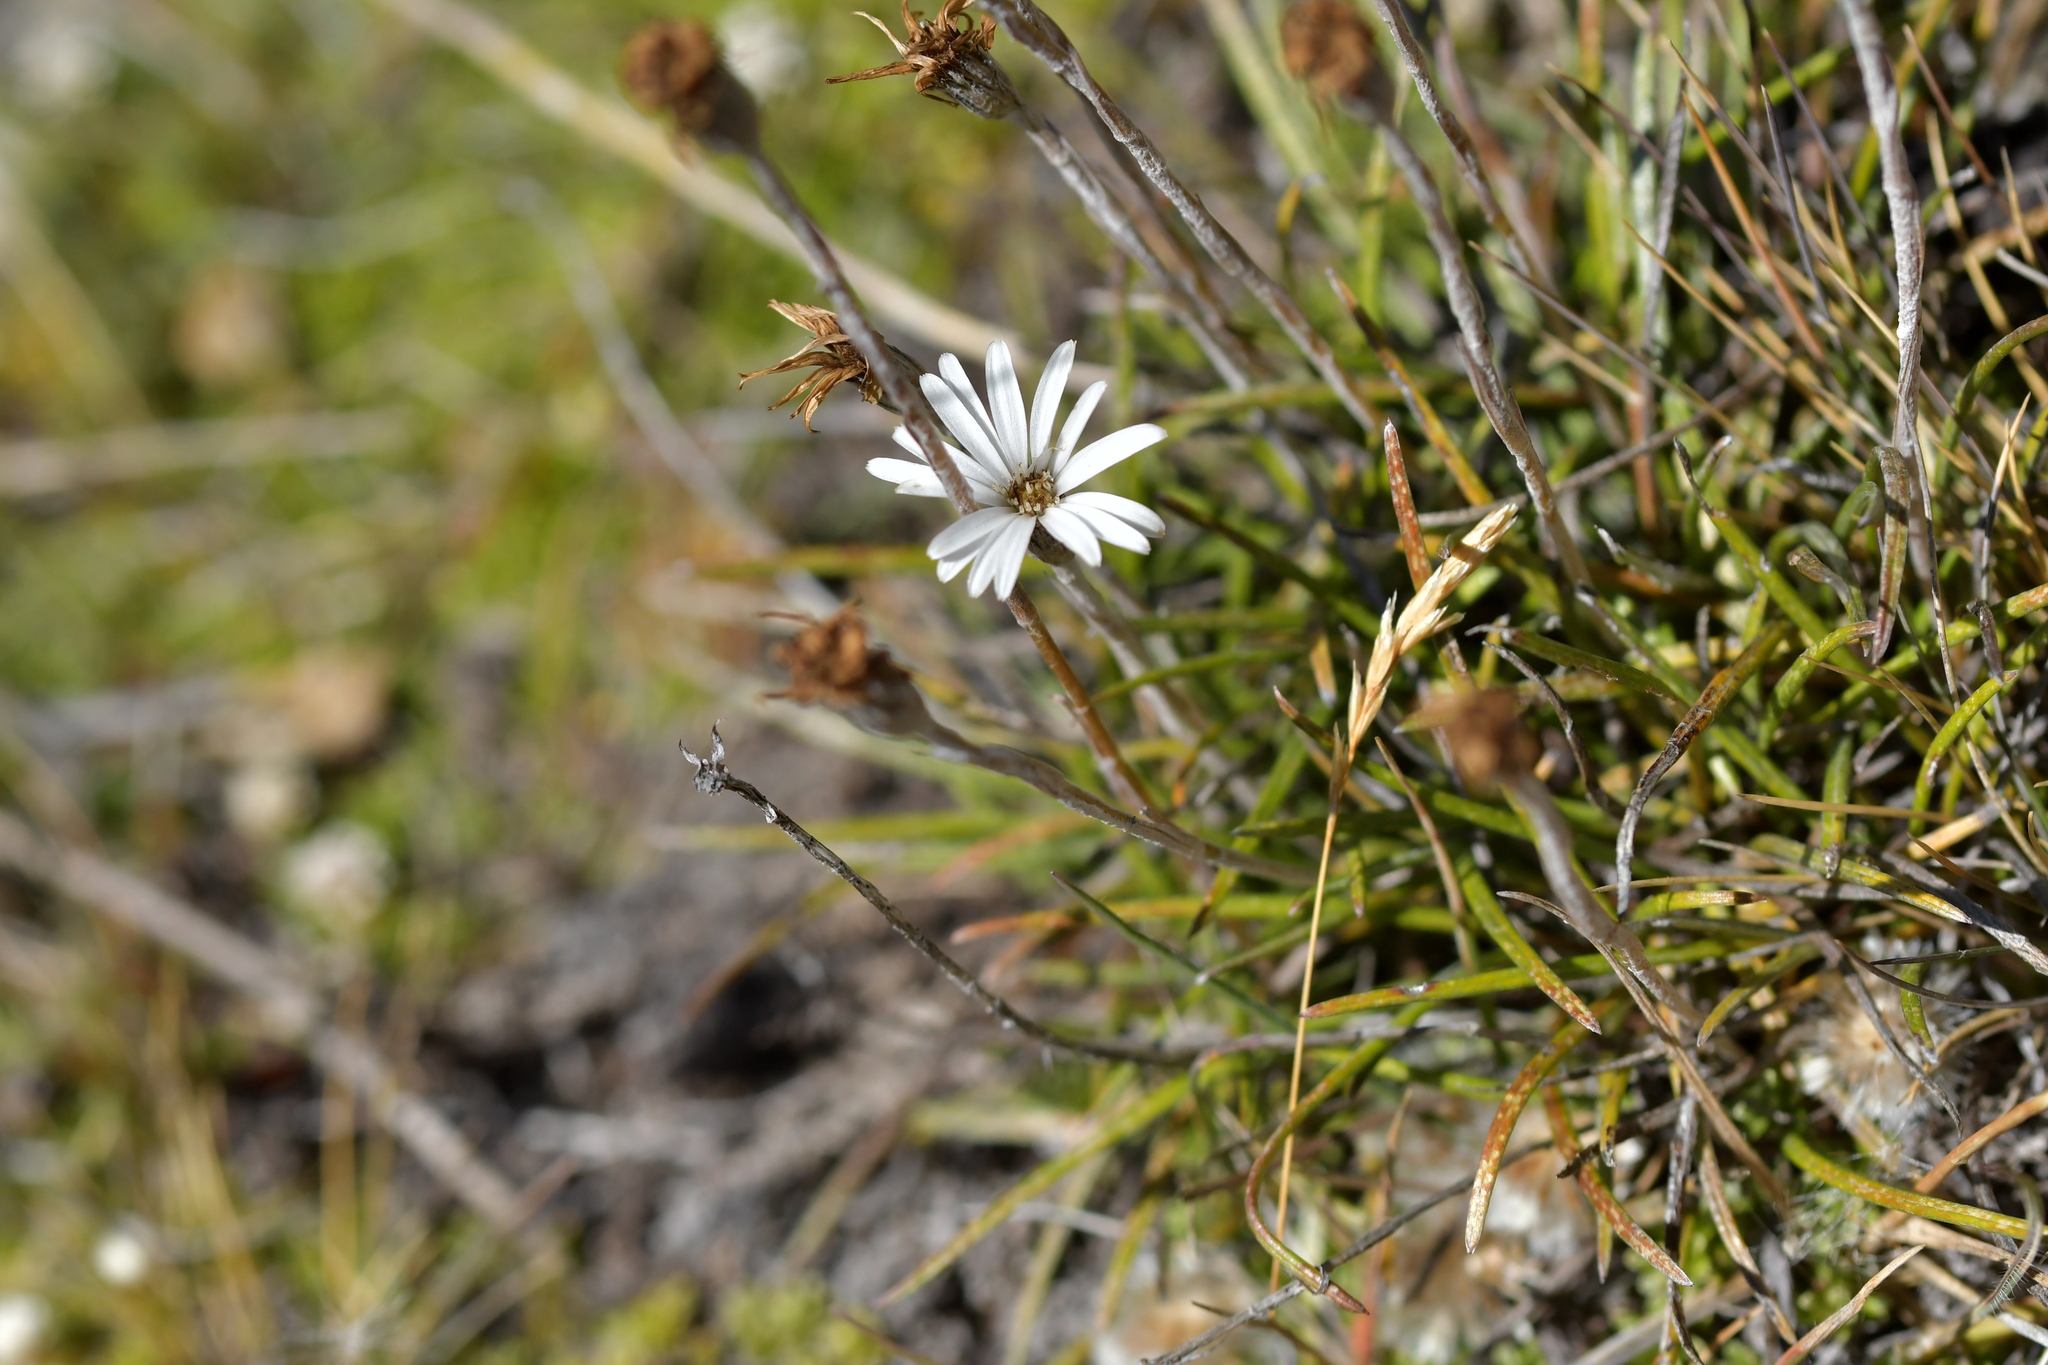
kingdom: Plantae
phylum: Tracheophyta
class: Magnoliopsida
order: Asterales
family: Asteraceae
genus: Celmisia
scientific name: Celmisia gracilenta
